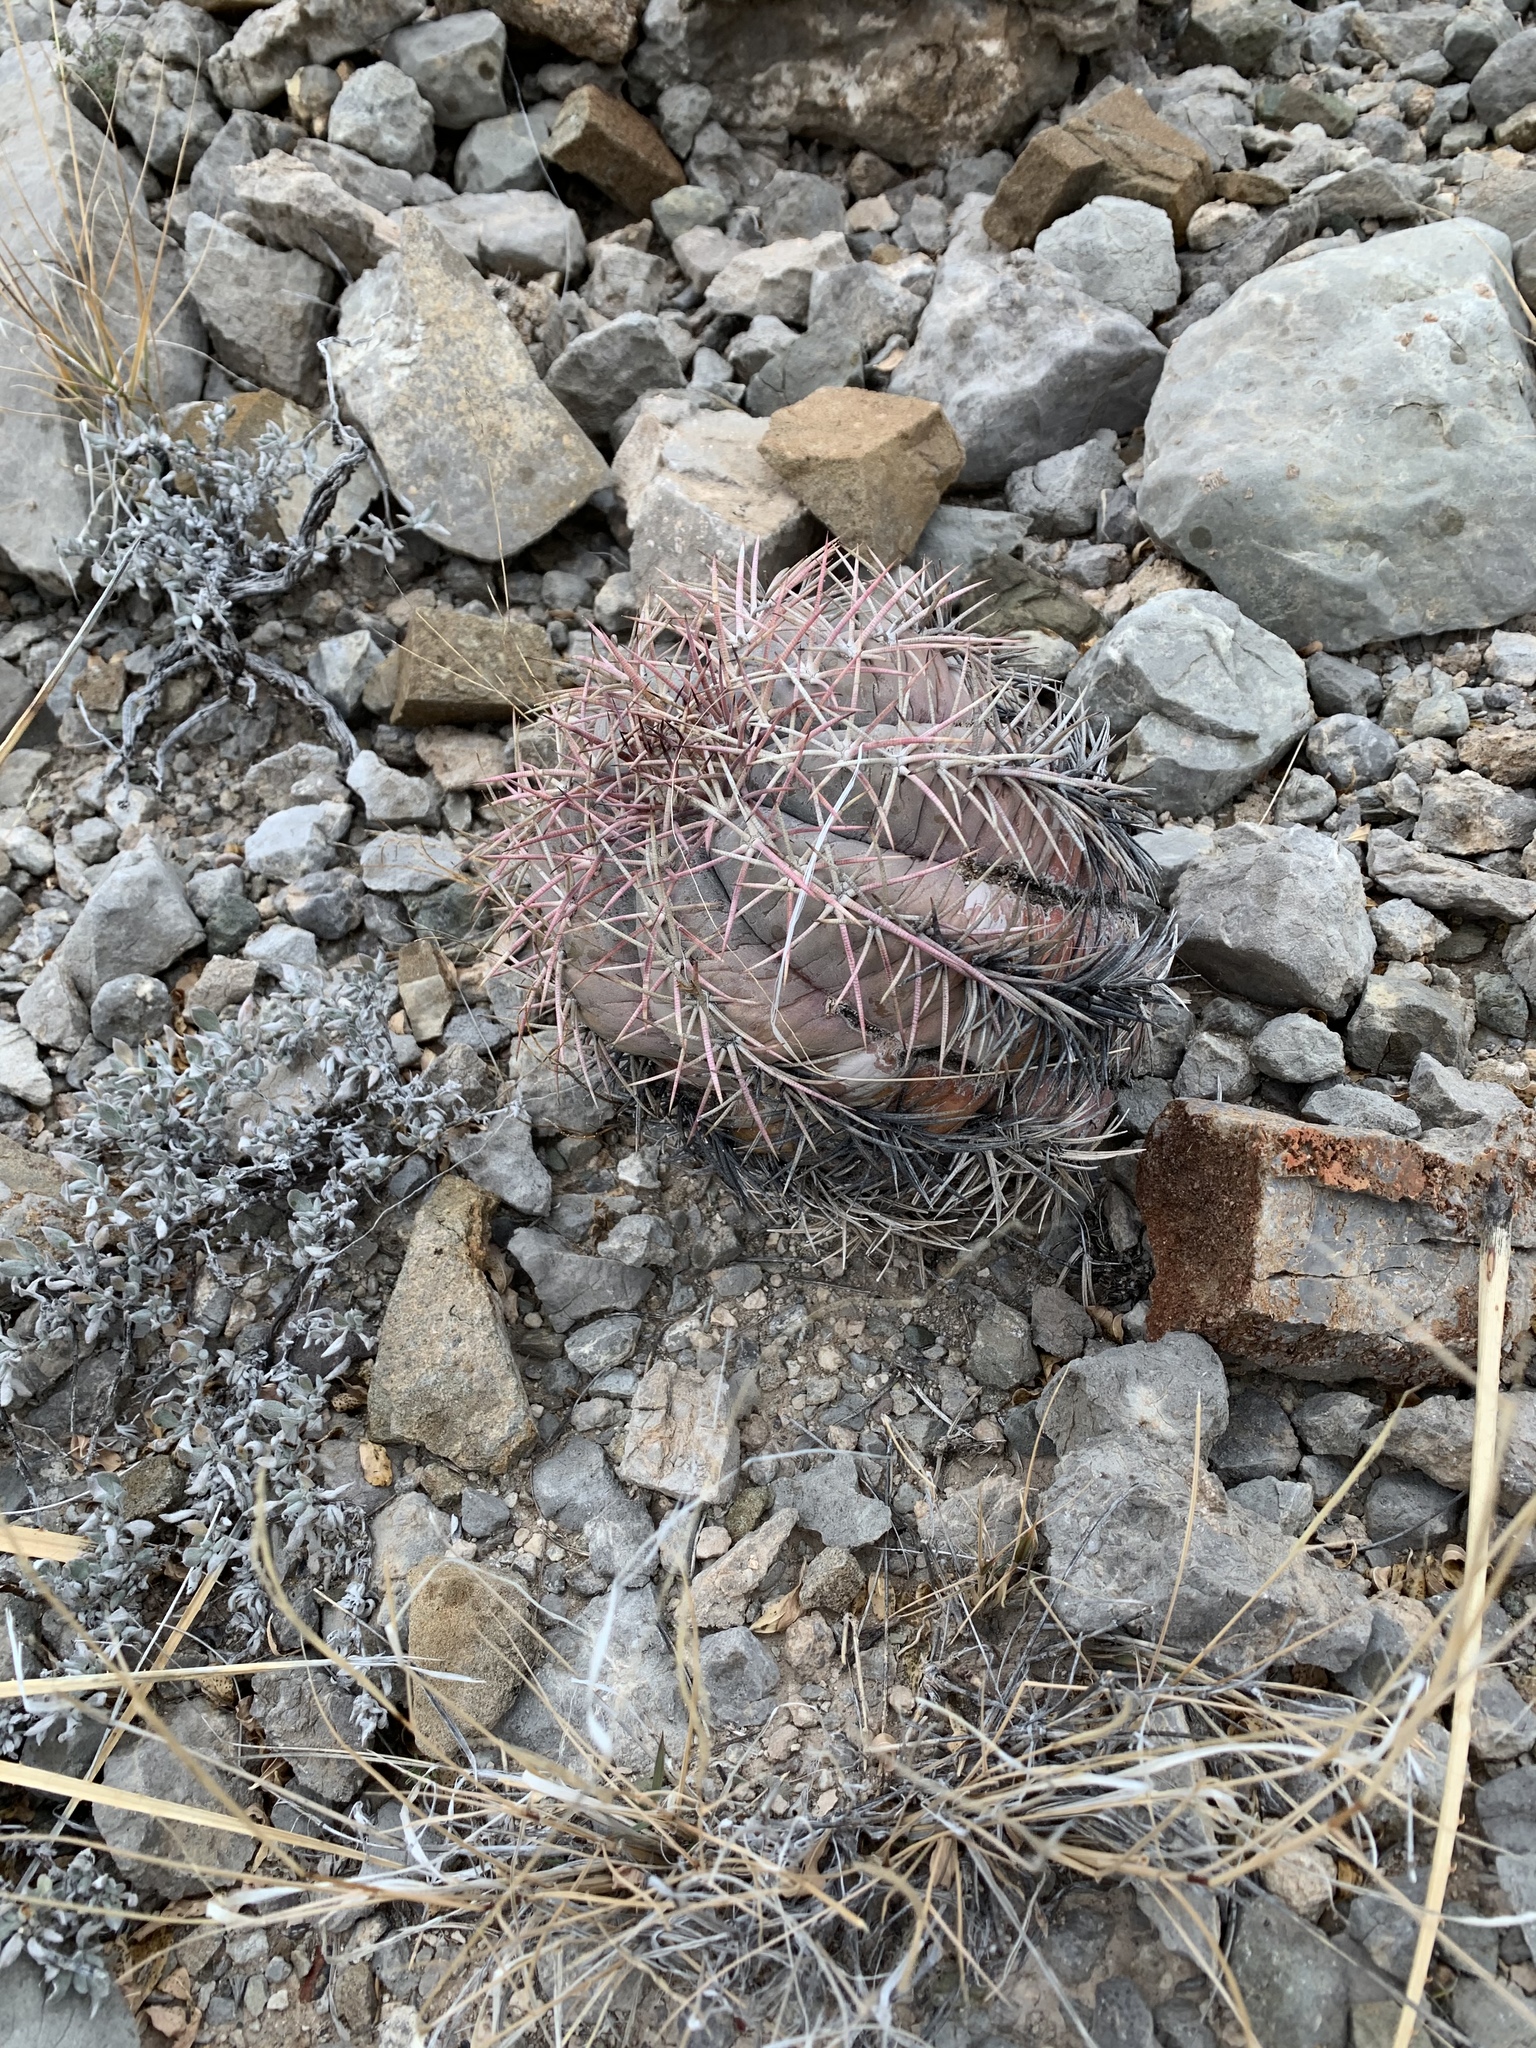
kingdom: Plantae
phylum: Tracheophyta
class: Magnoliopsida
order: Caryophyllales
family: Cactaceae
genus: Echinocactus
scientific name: Echinocactus horizonthalonius
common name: Devilshead
